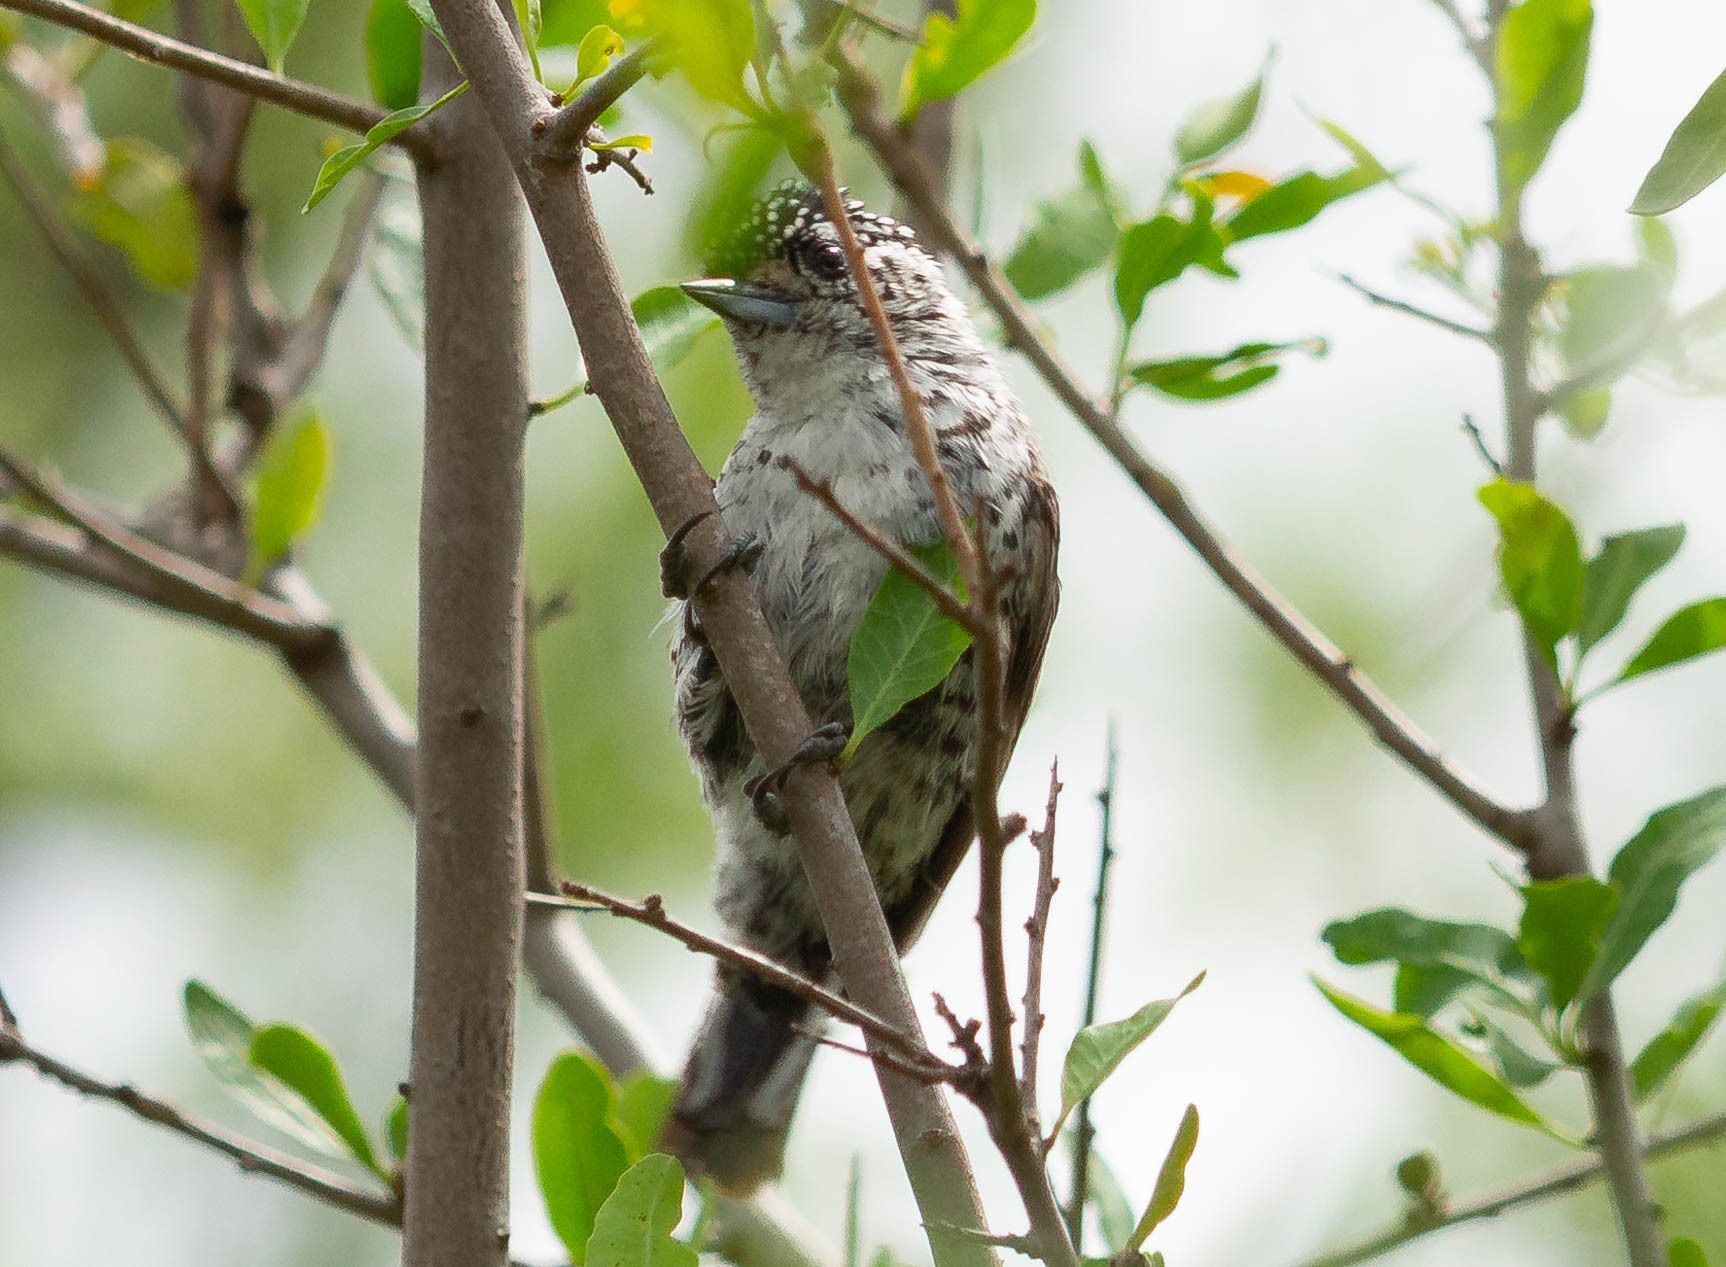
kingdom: Animalia
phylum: Chordata
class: Aves
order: Piciformes
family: Picidae
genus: Picumnus
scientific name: Picumnus cirratus
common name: White-barred piculet
